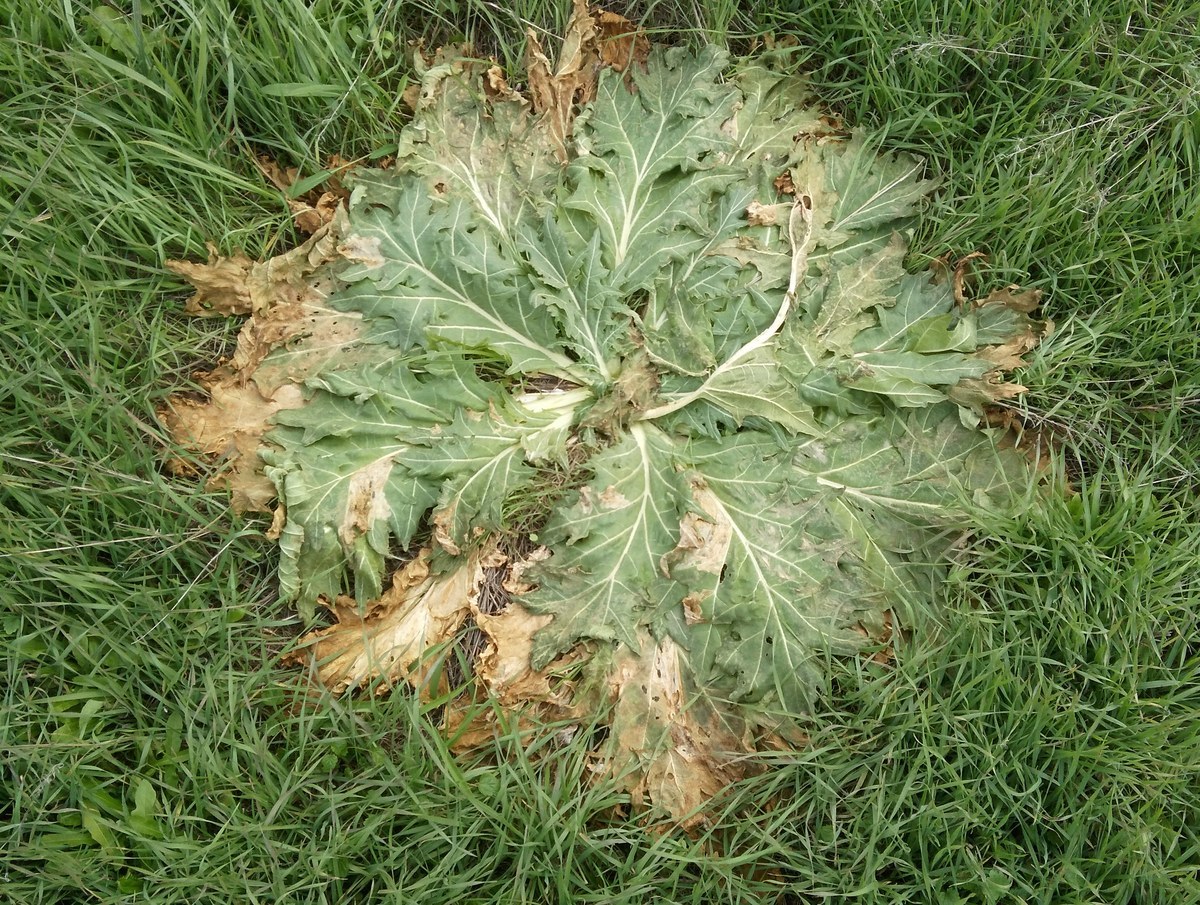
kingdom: Plantae
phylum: Tracheophyta
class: Magnoliopsida
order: Solanales
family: Solanaceae
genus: Hyoscyamus
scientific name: Hyoscyamus niger
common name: Henbane
